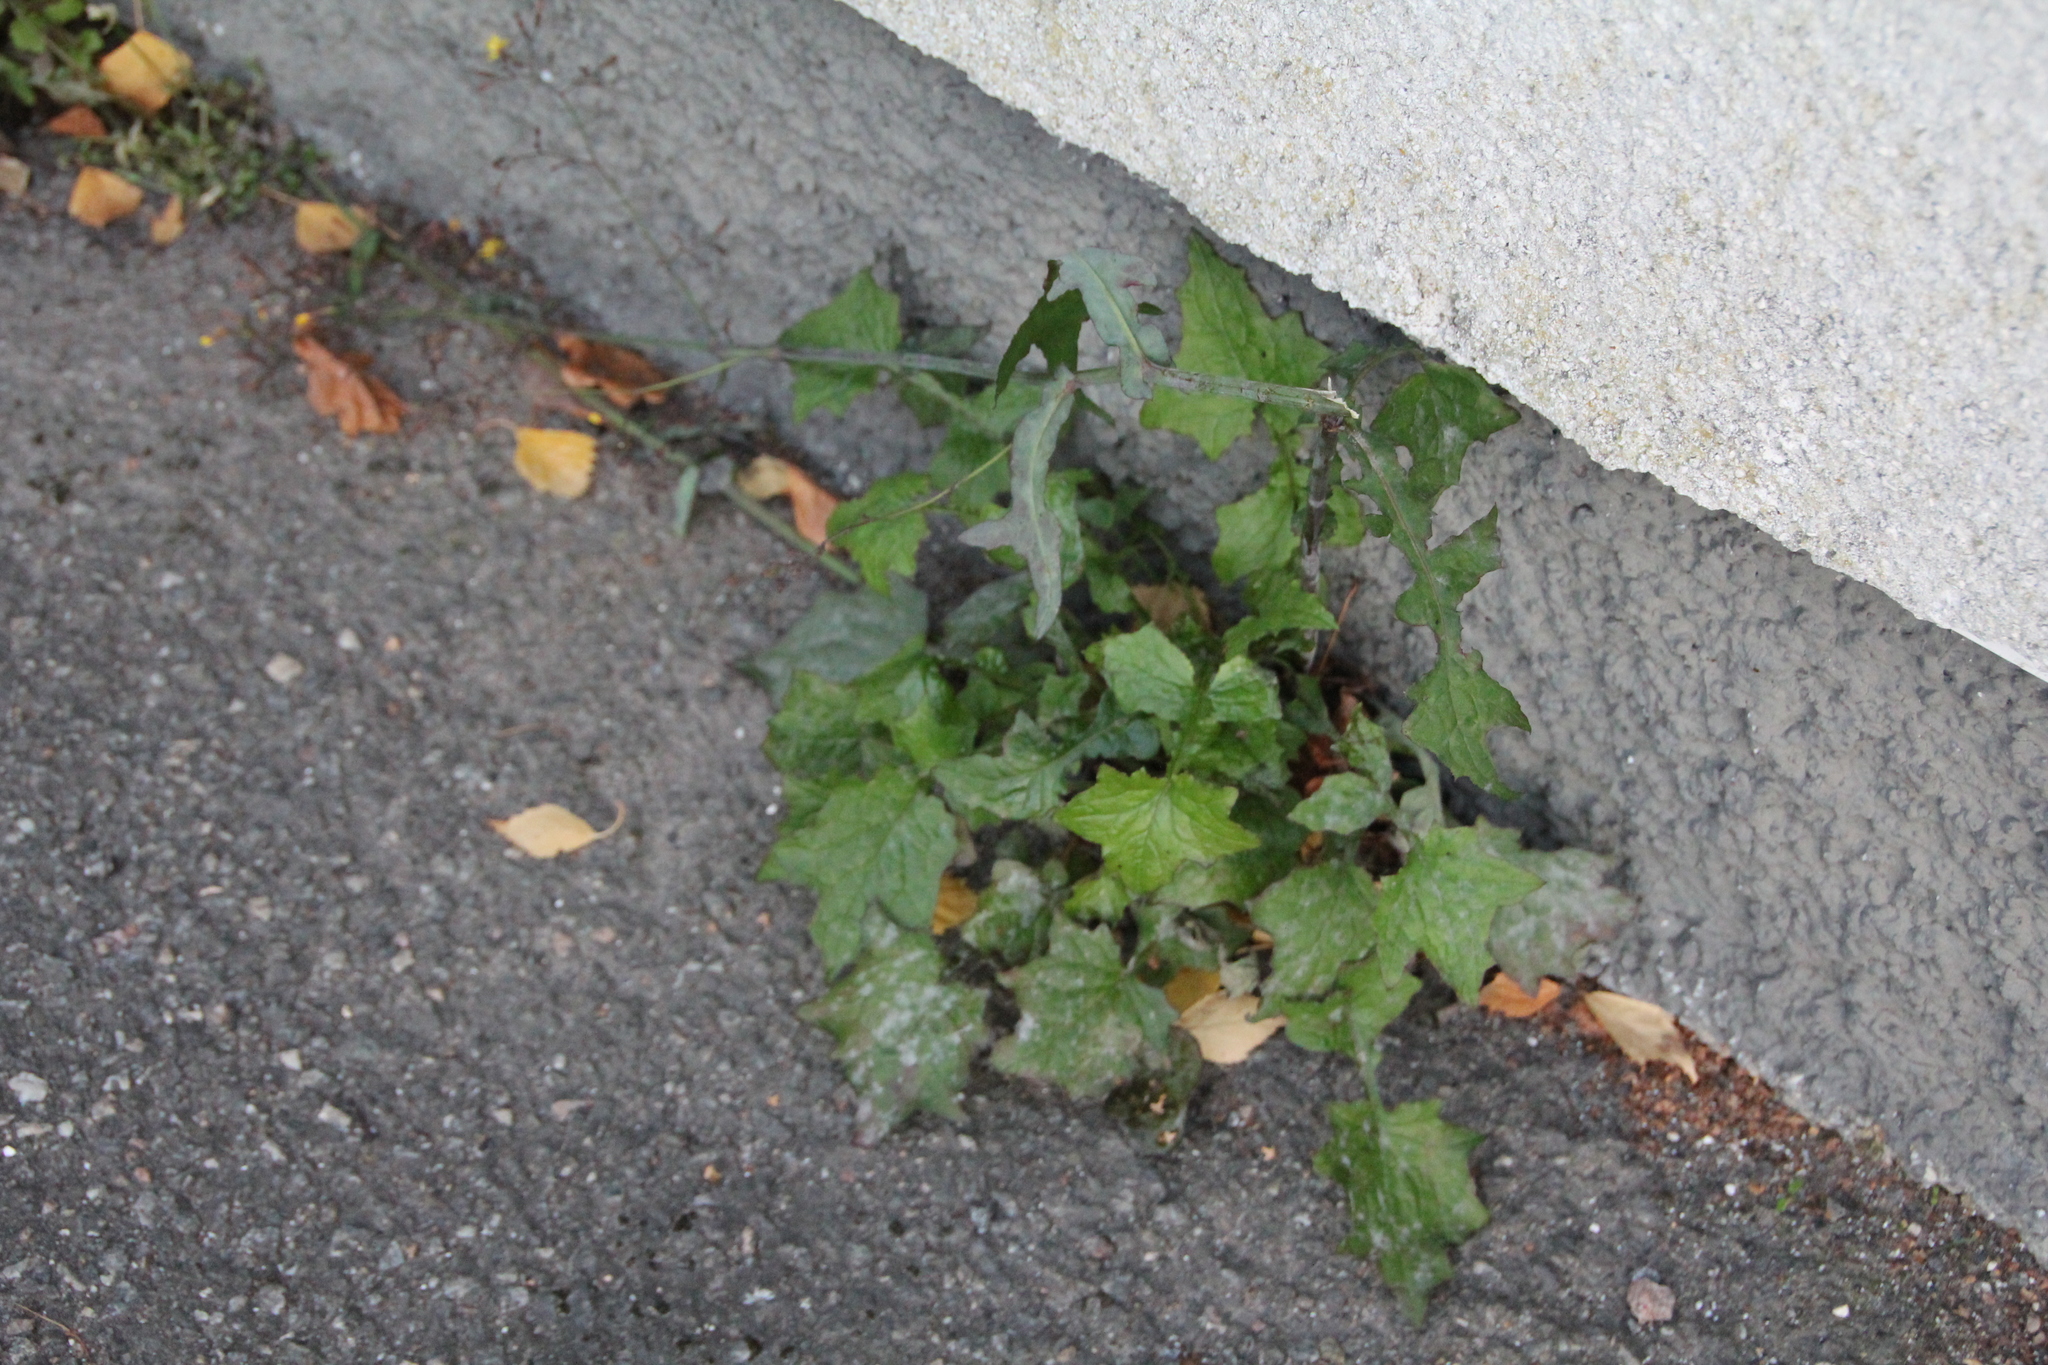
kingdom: Plantae
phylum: Tracheophyta
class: Magnoliopsida
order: Asterales
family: Asteraceae
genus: Mycelis
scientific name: Mycelis muralis
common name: Wall lettuce
